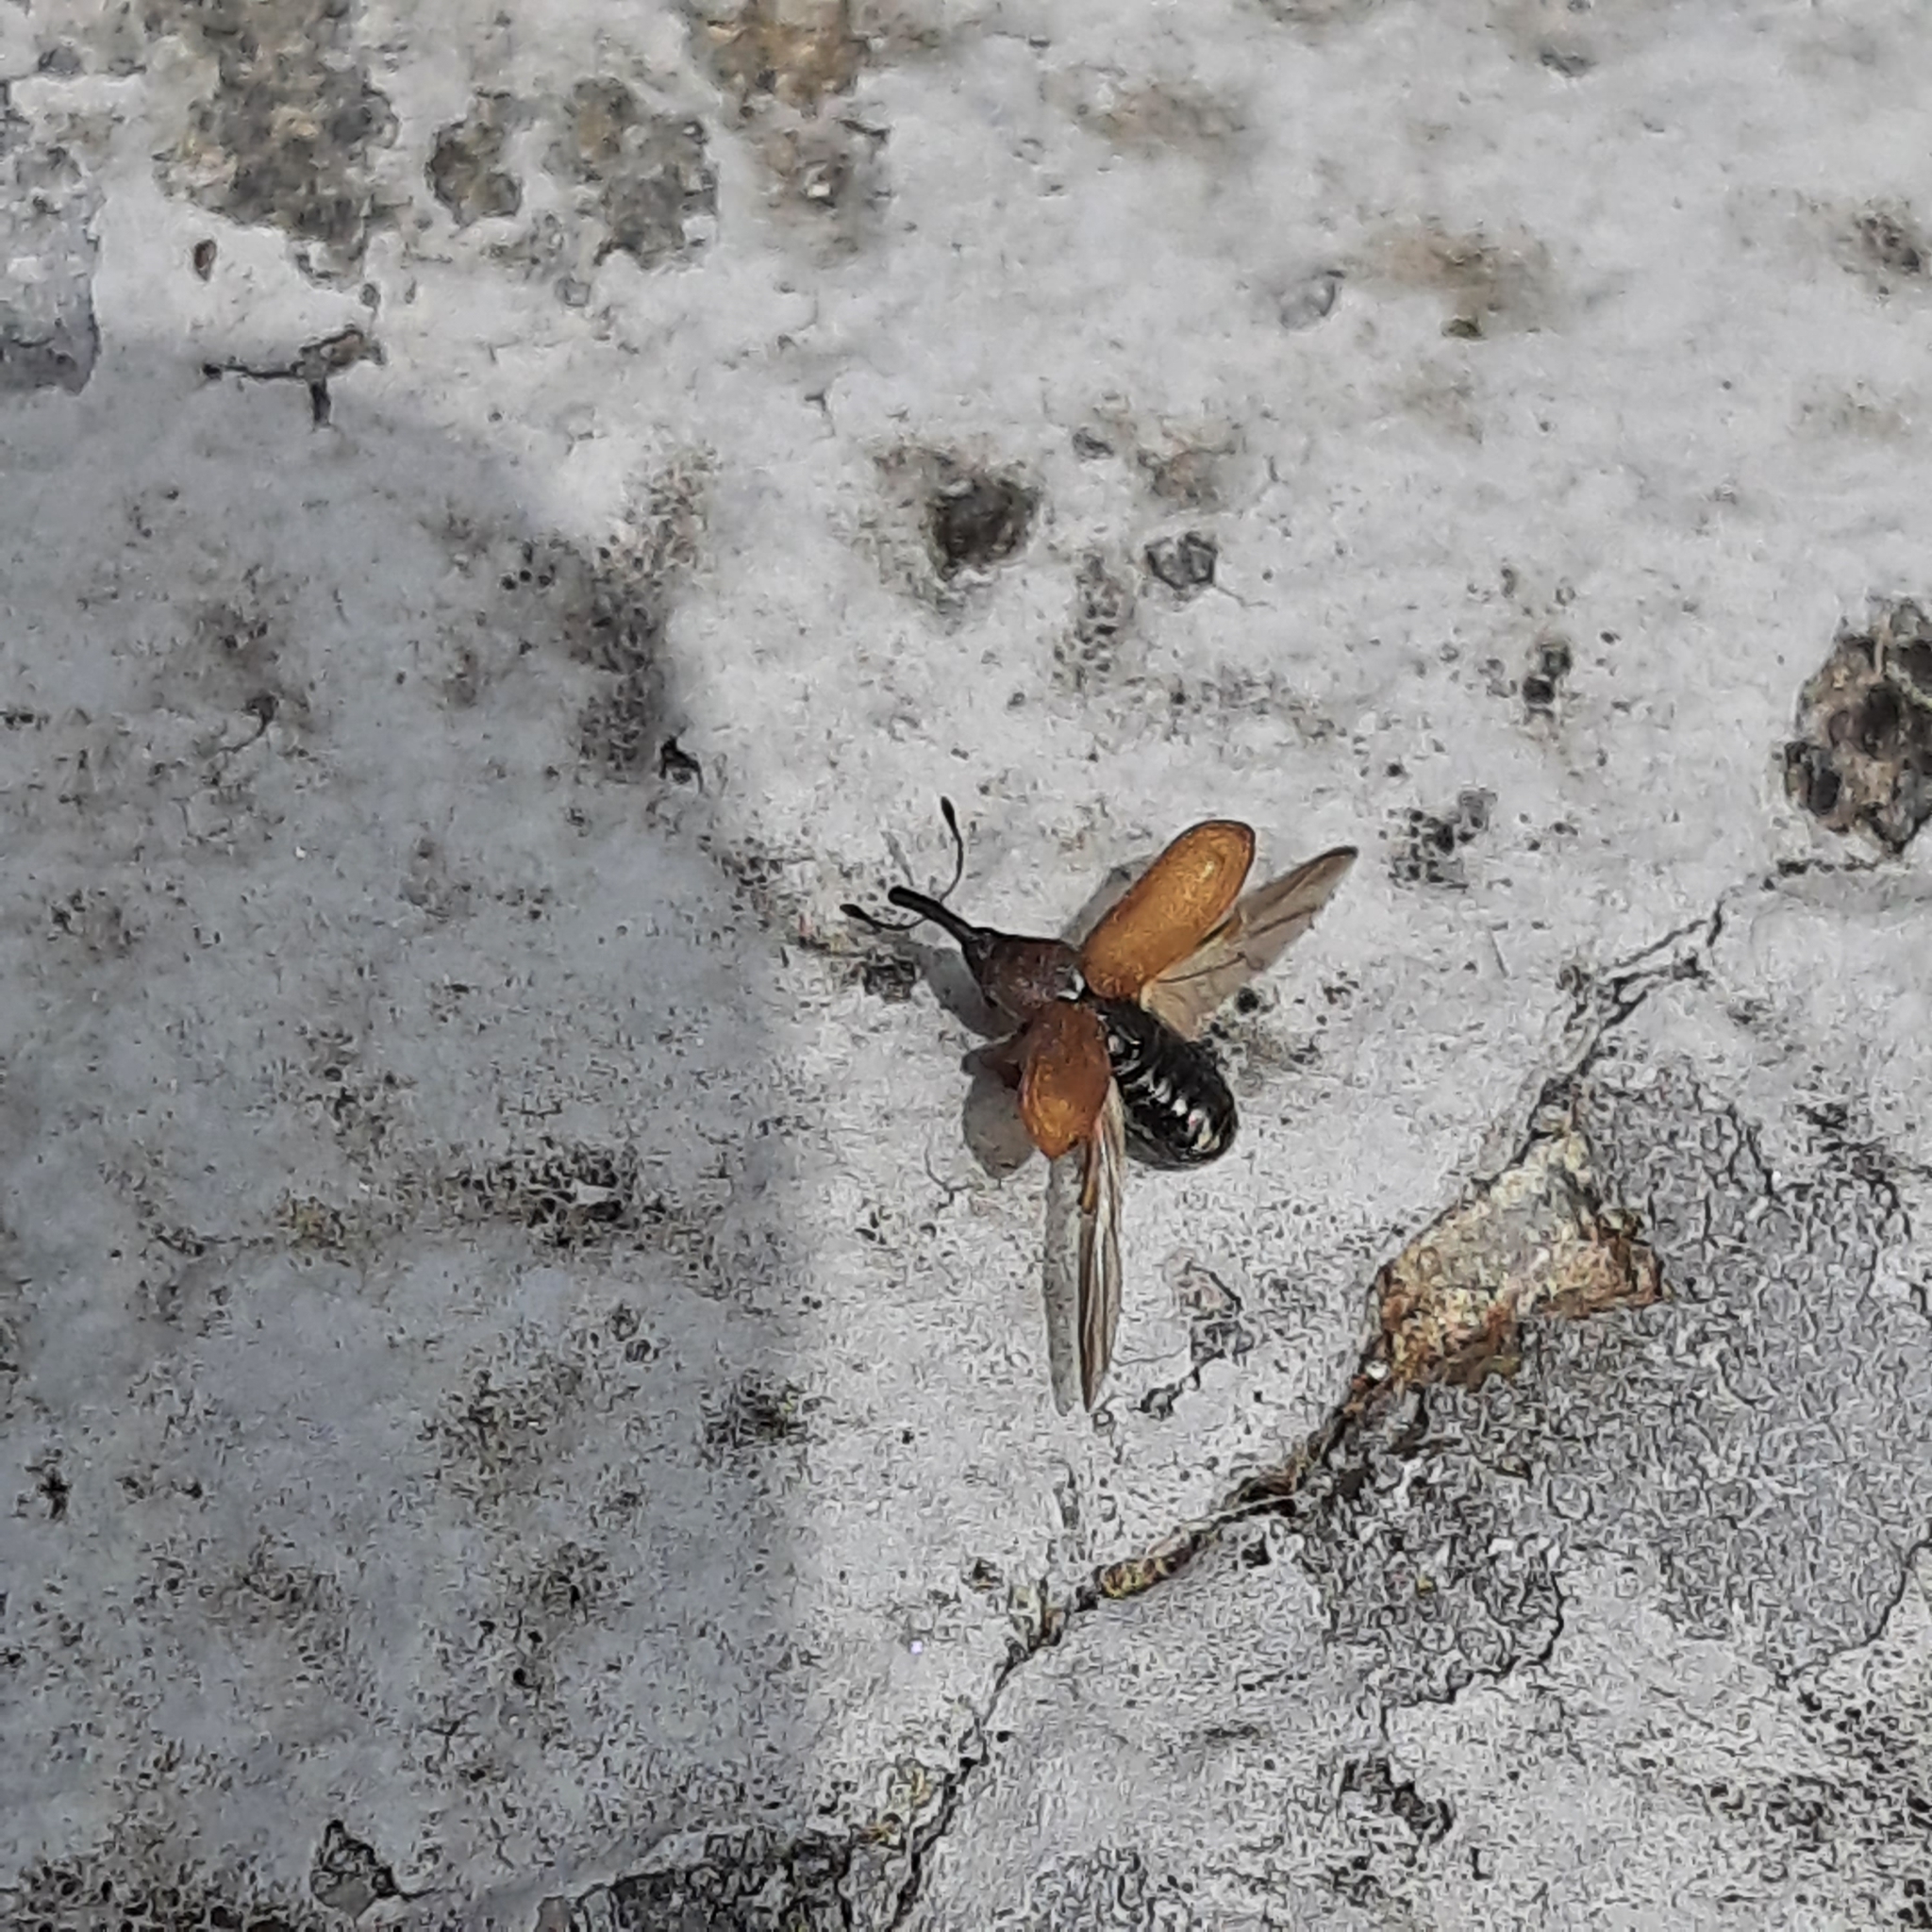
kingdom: Animalia
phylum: Arthropoda
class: Insecta
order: Coleoptera
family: Curculionidae
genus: Magdalis
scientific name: Magdalis rufa
